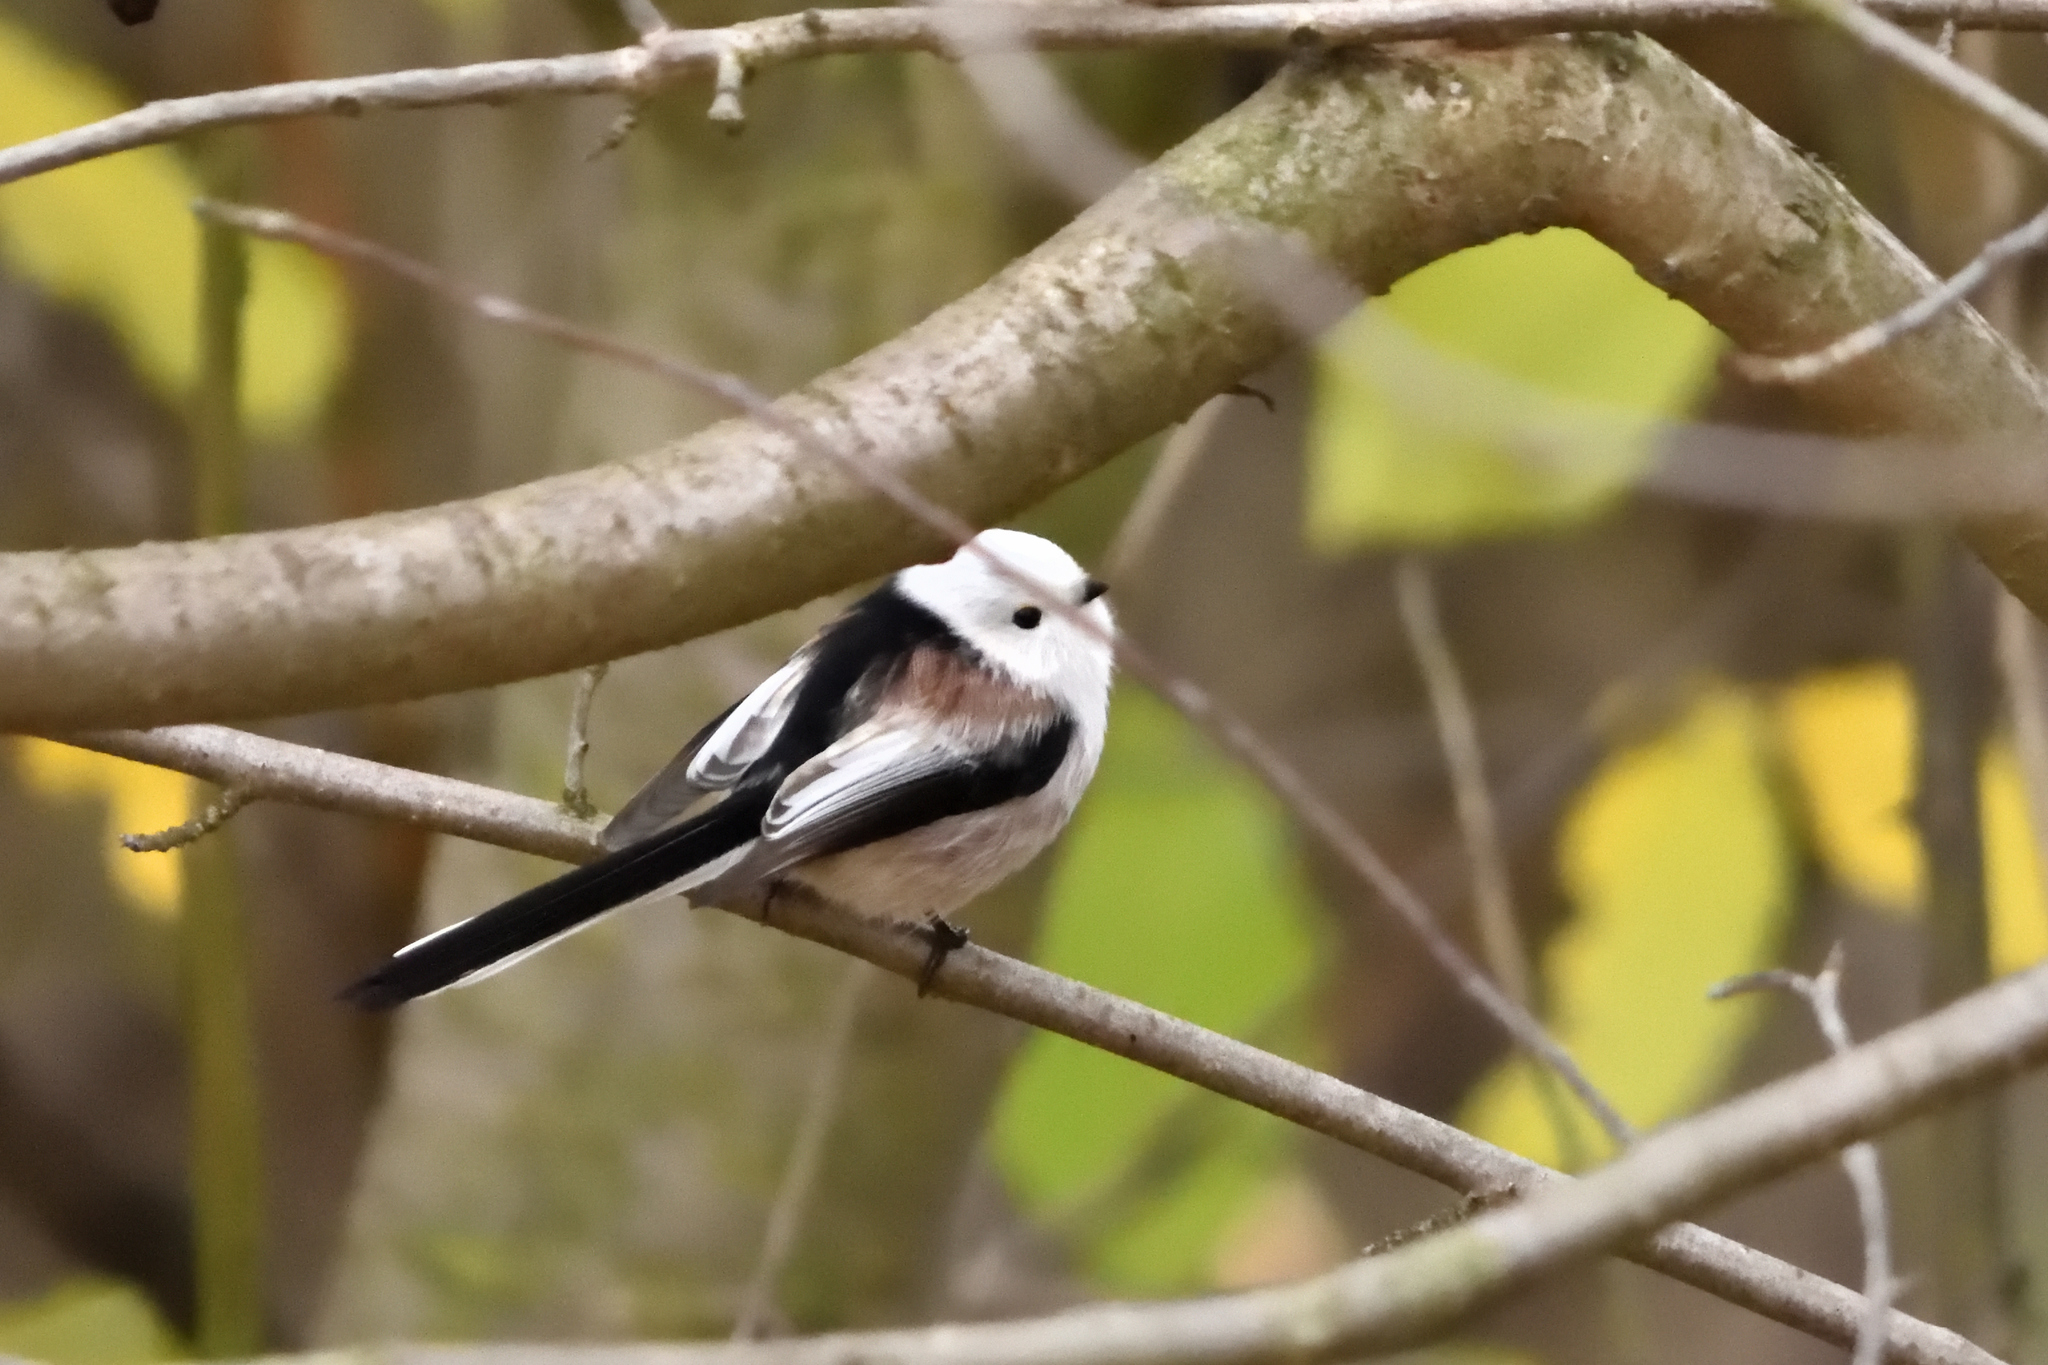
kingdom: Animalia
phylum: Chordata
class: Aves
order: Passeriformes
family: Aegithalidae
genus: Aegithalos
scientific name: Aegithalos caudatus
